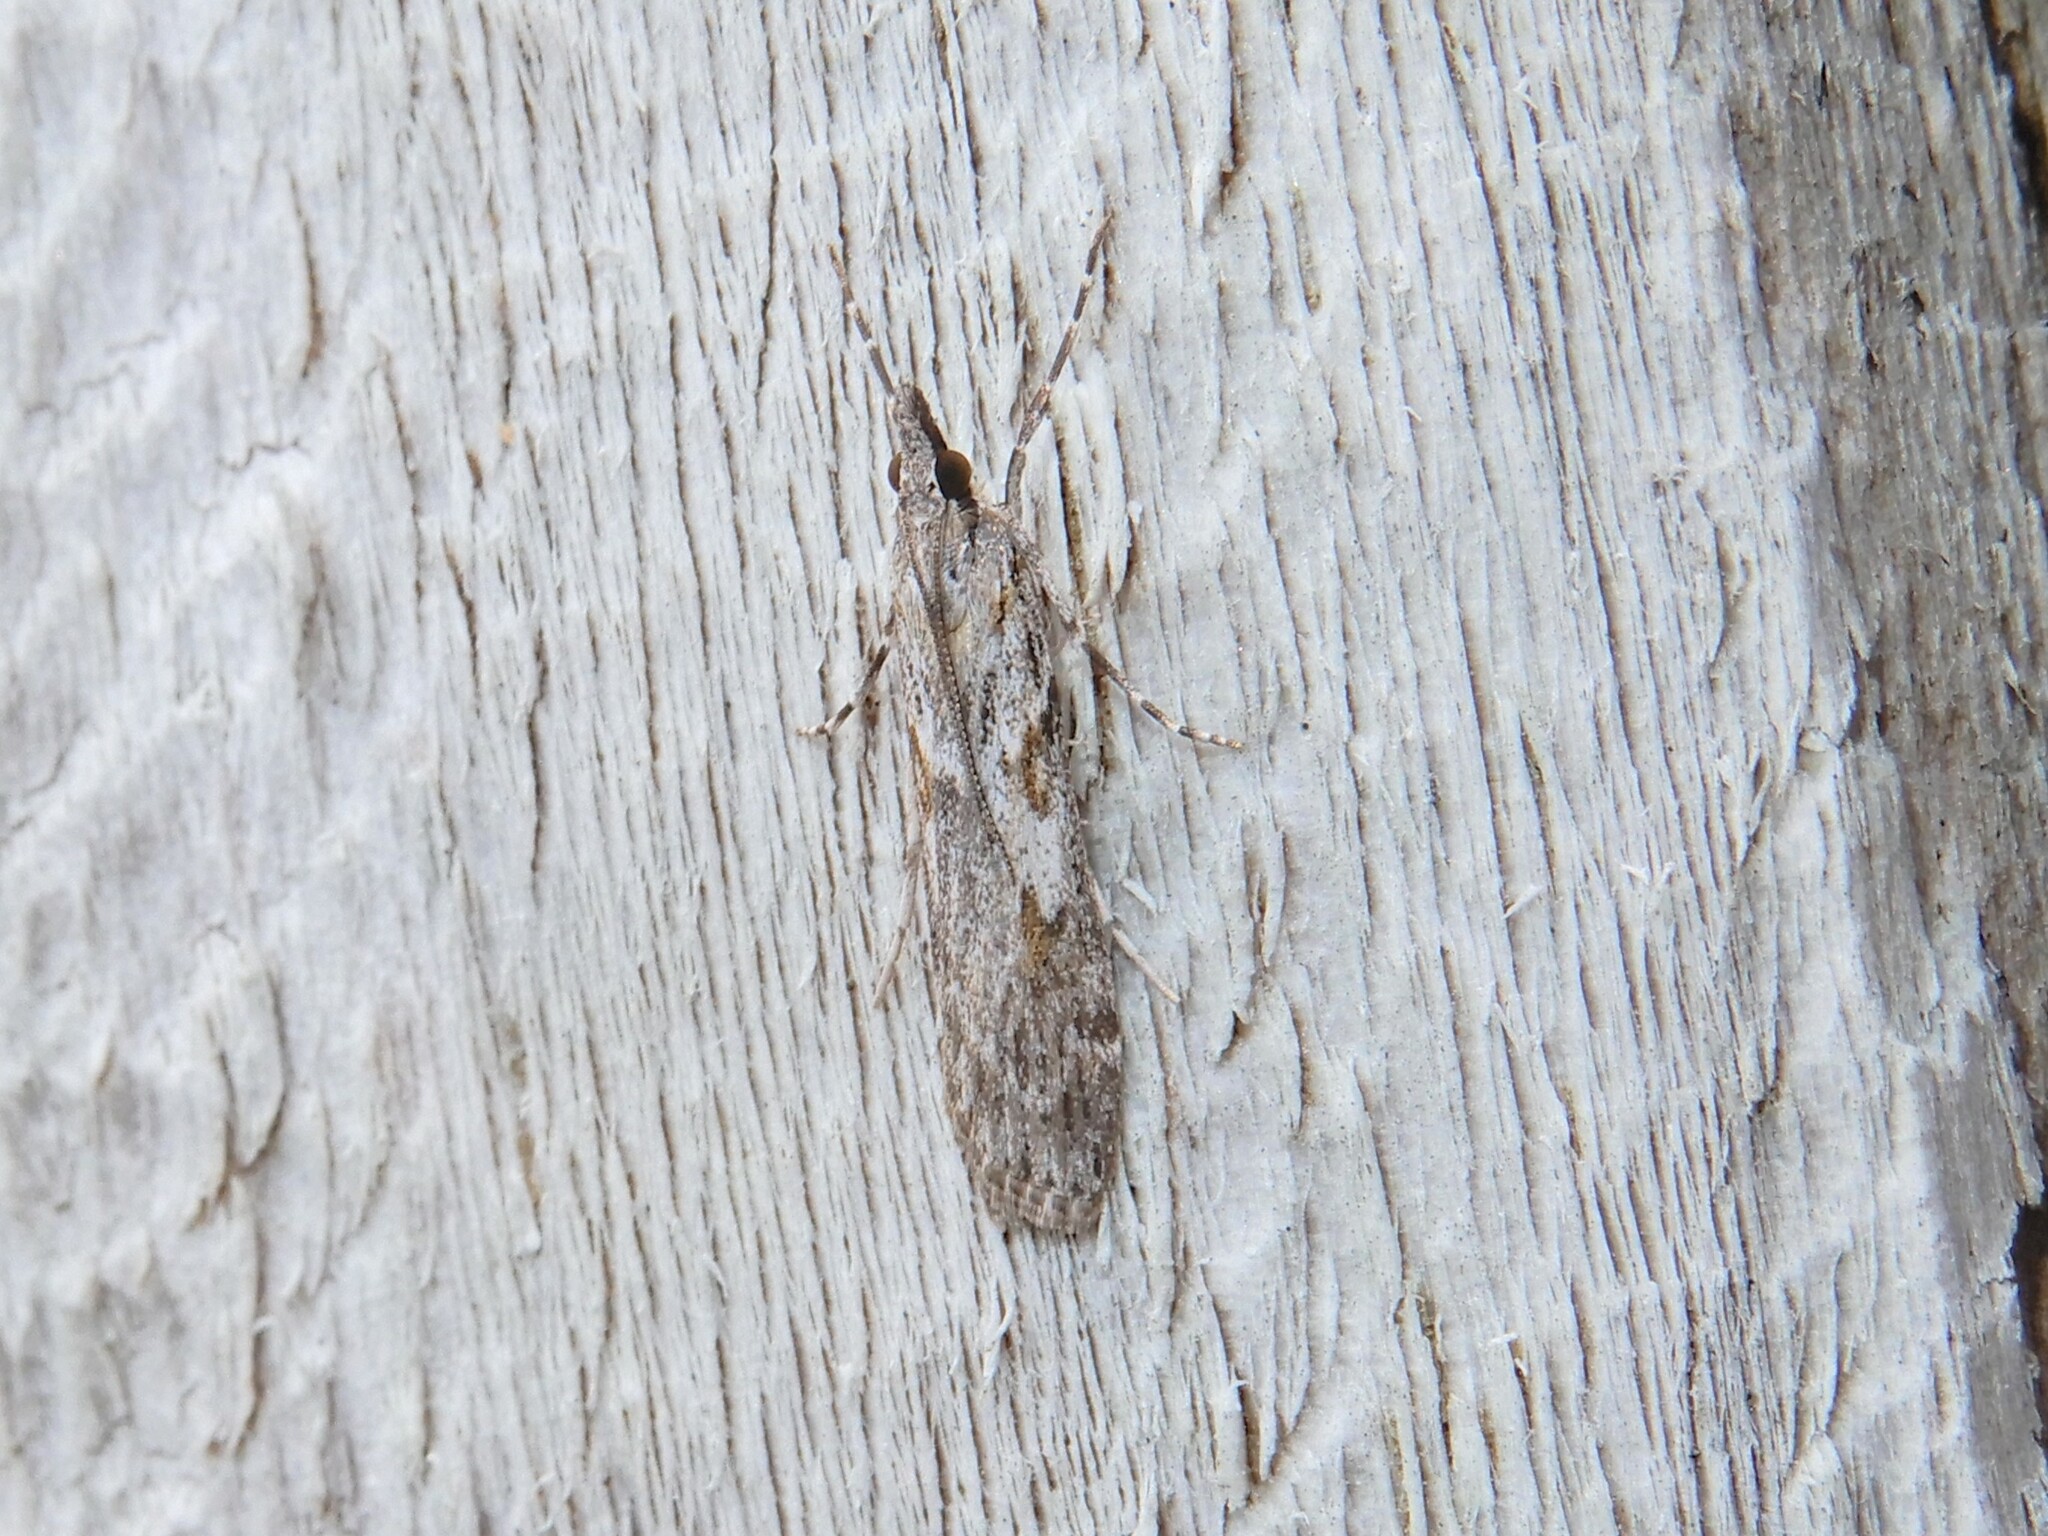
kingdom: Animalia
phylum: Arthropoda
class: Insecta
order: Lepidoptera
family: Crambidae
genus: Scoparia
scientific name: Scoparia halopis
